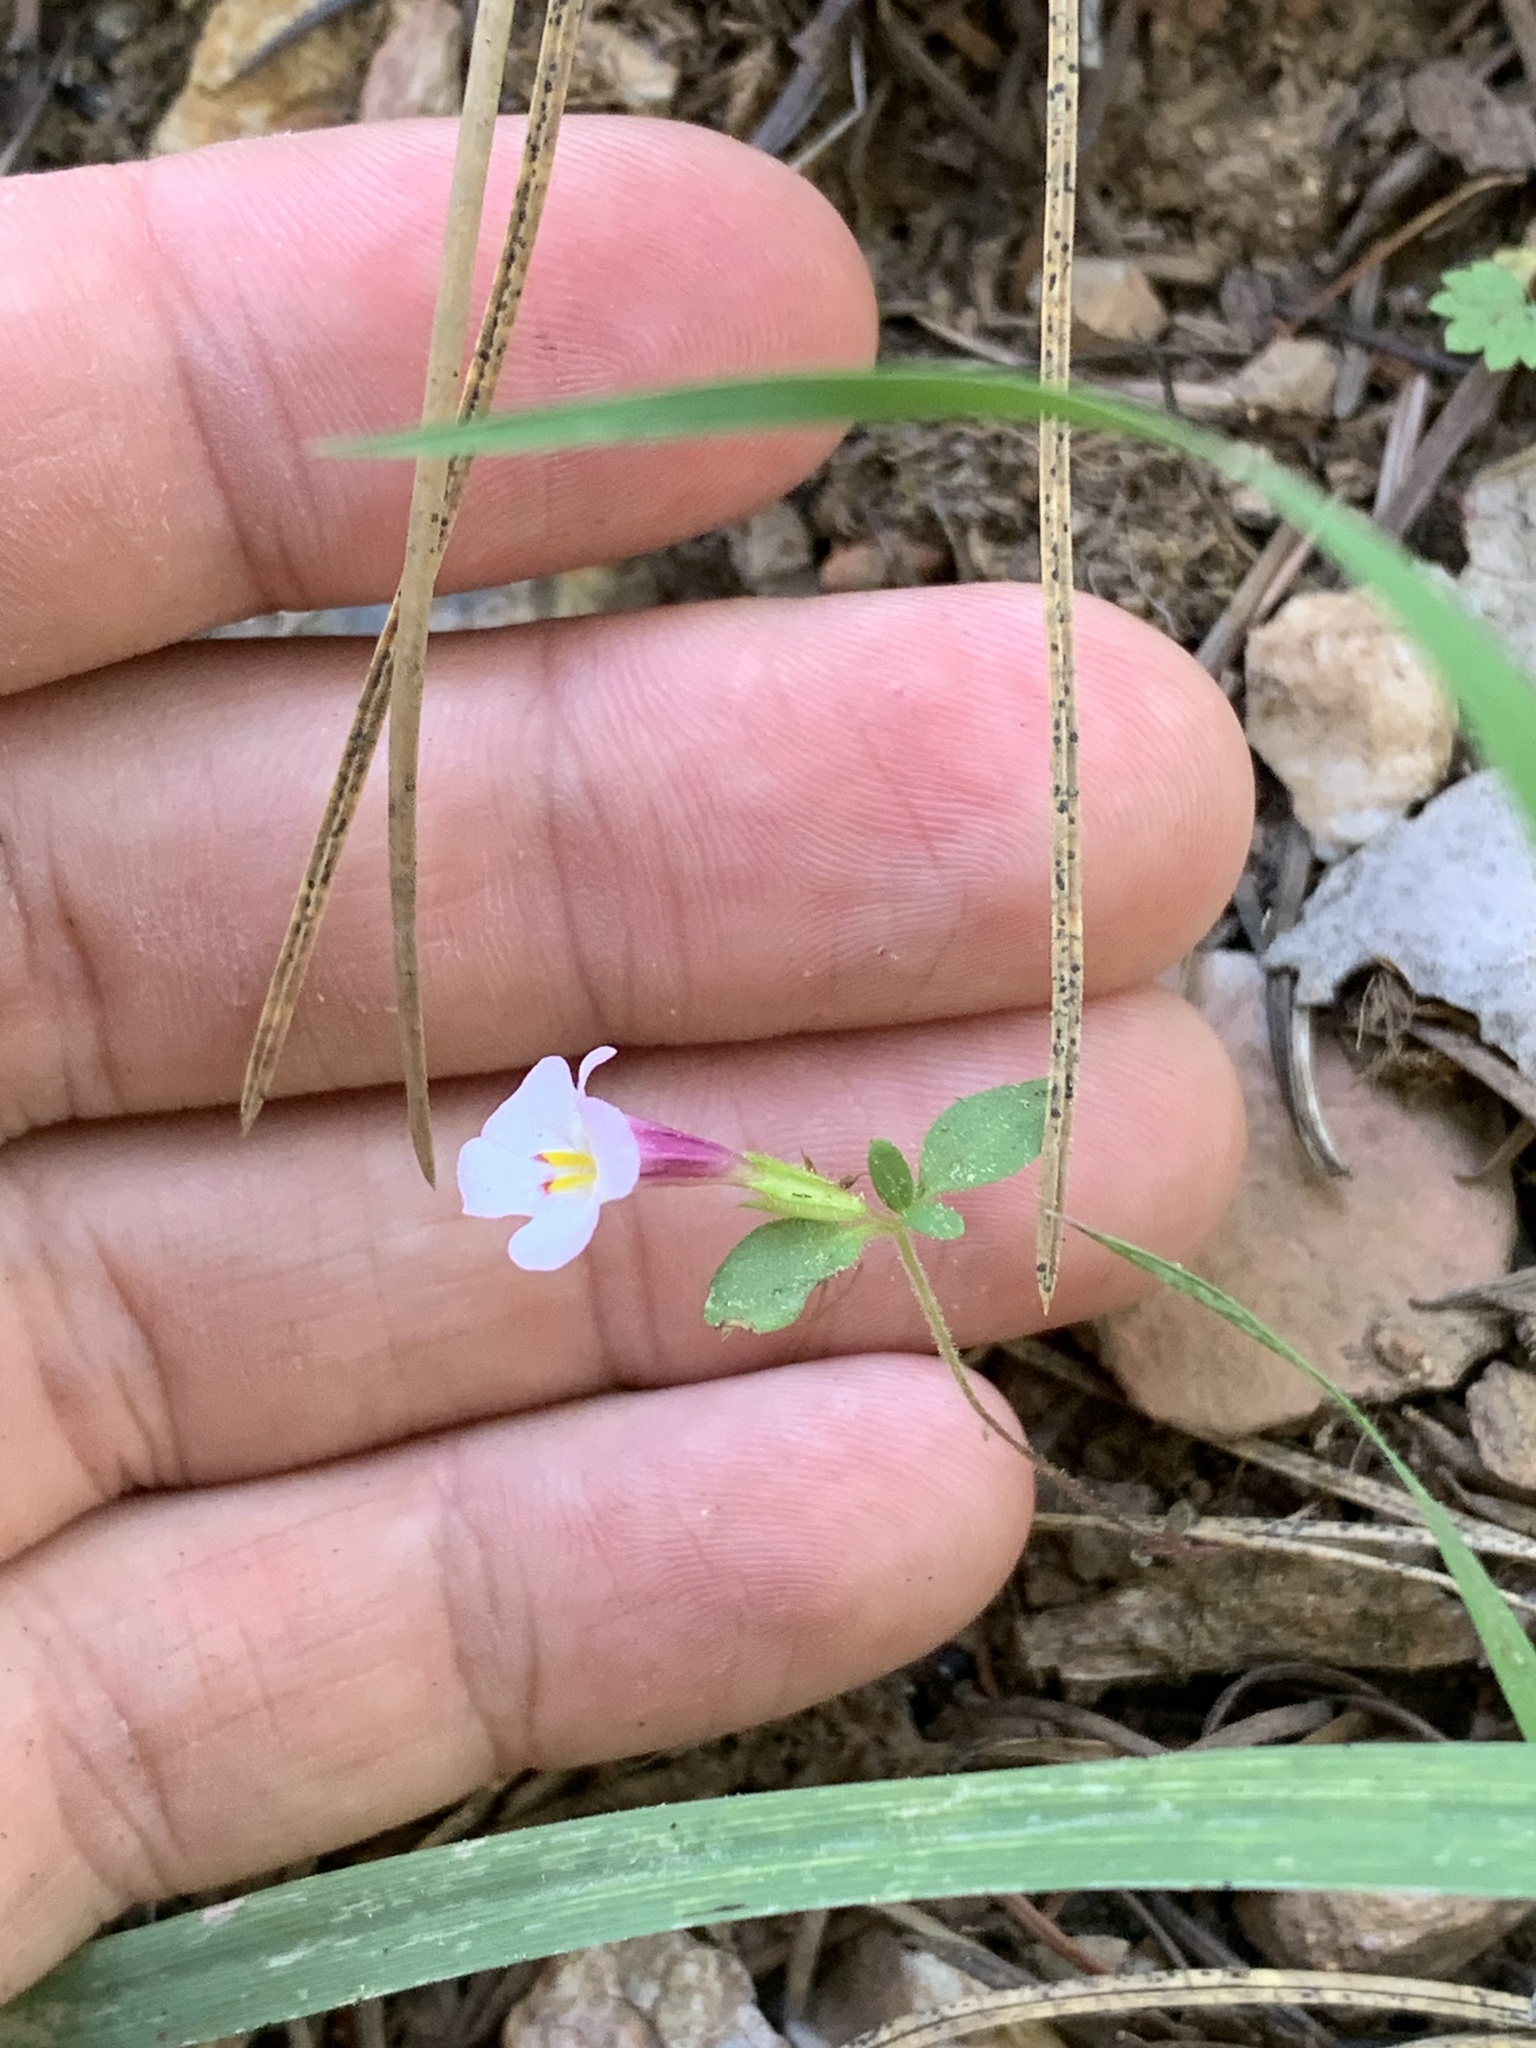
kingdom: Plantae
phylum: Tracheophyta
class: Magnoliopsida
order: Lamiales
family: Phrymaceae
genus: Diplacus
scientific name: Diplacus torreyi
